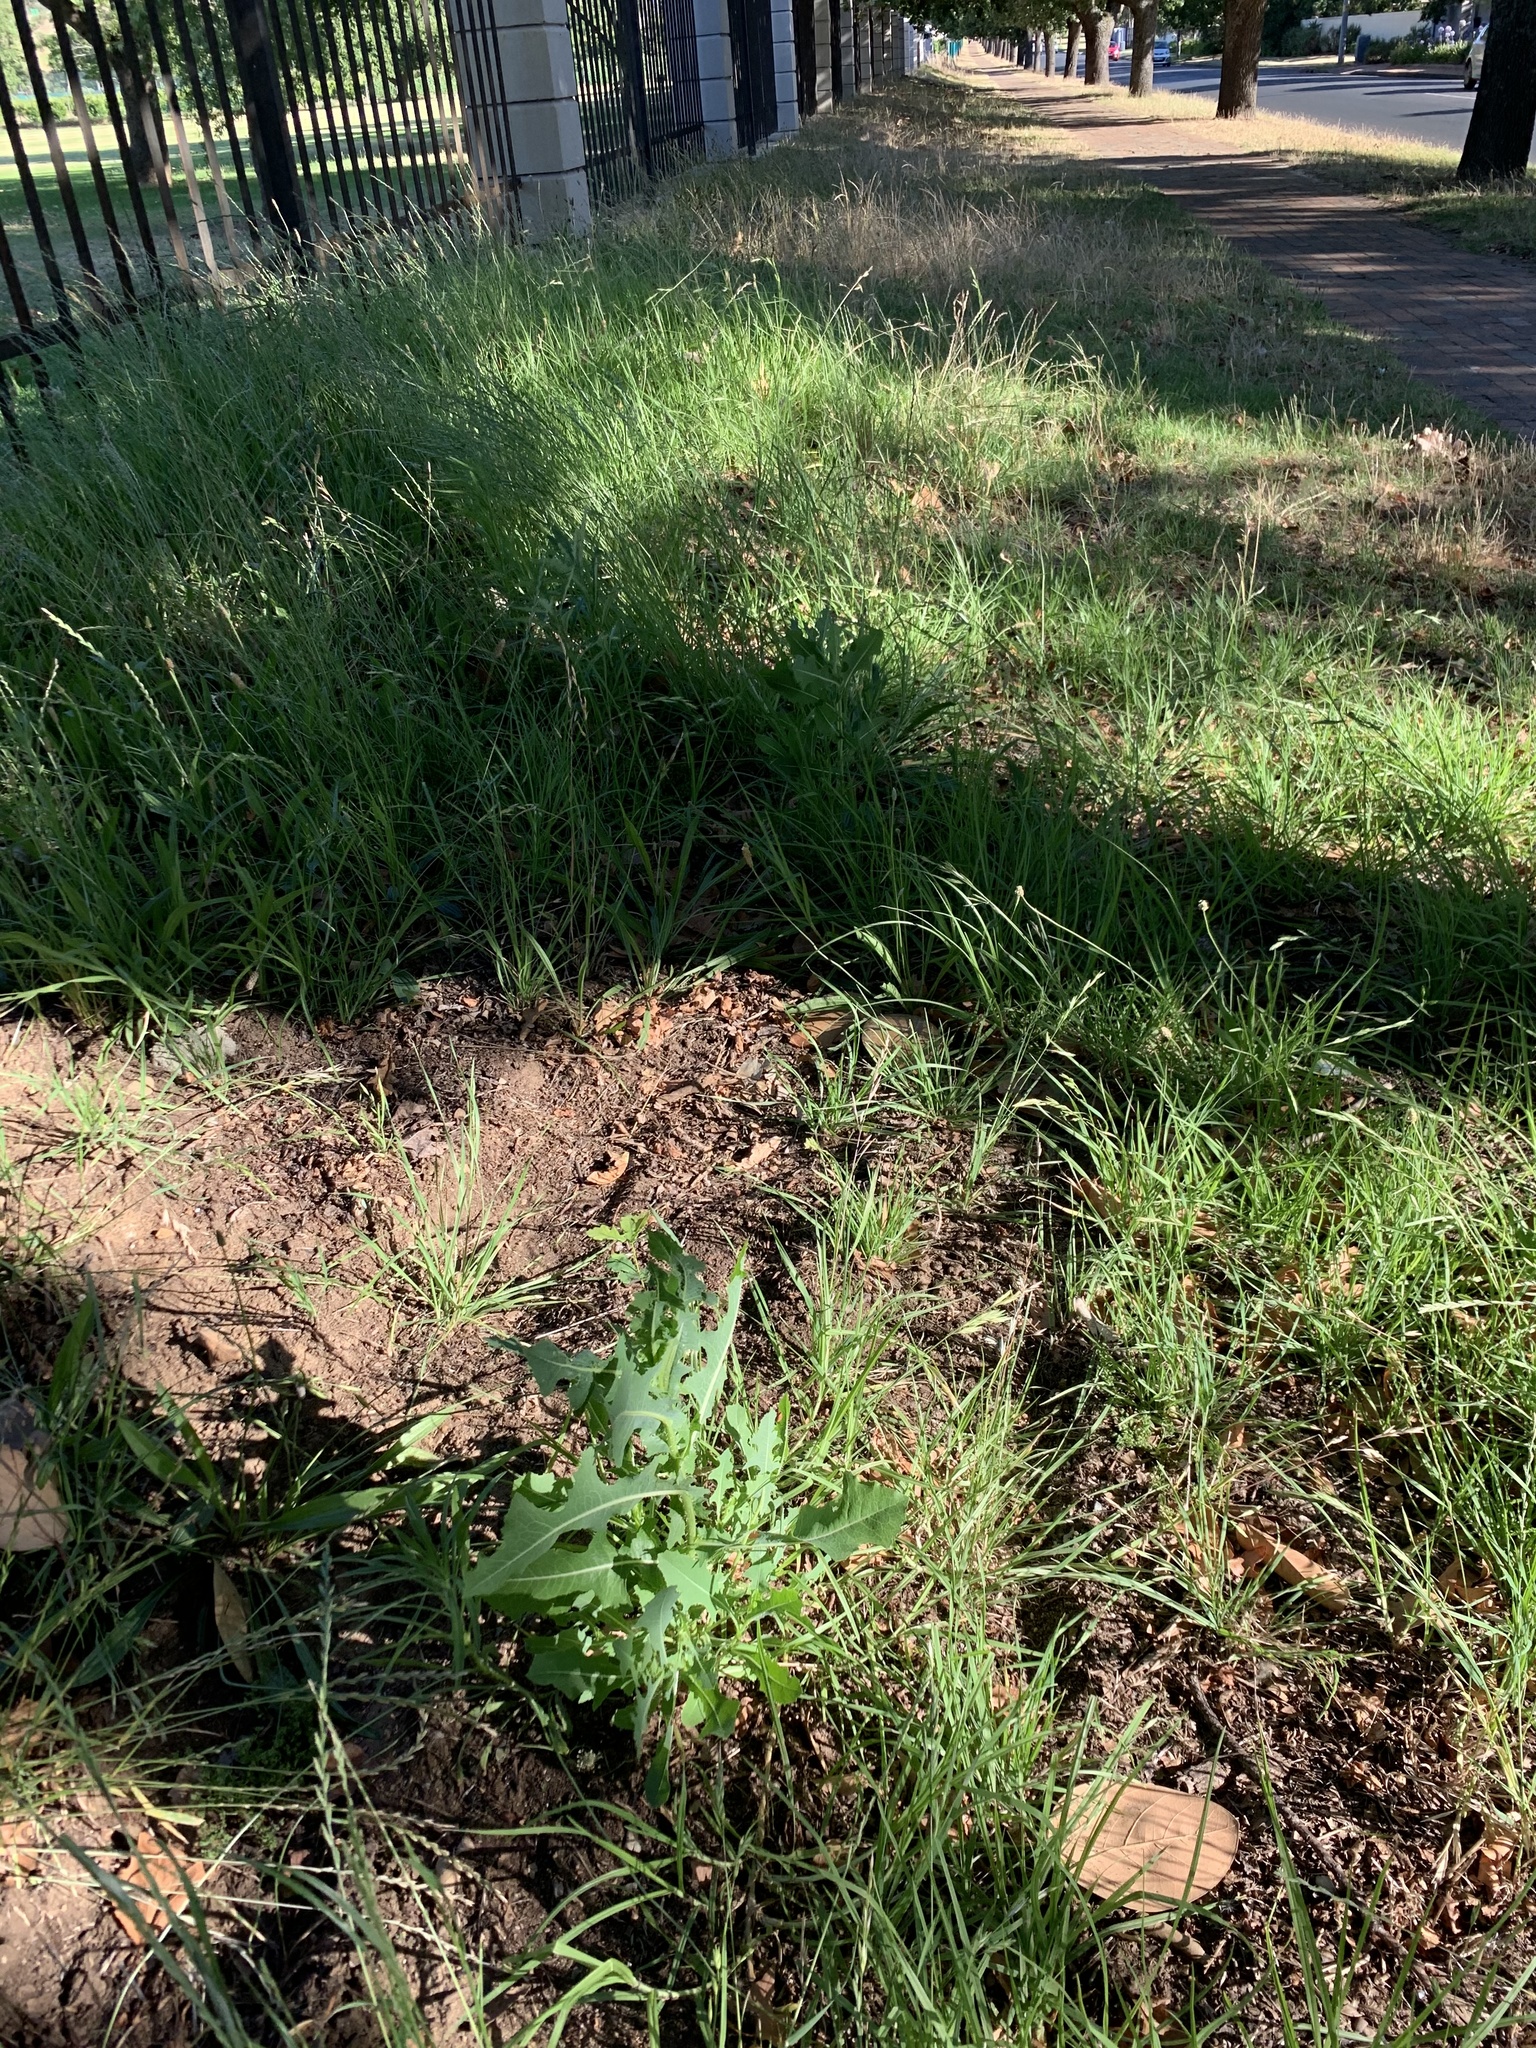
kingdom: Plantae
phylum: Tracheophyta
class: Magnoliopsida
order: Asterales
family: Asteraceae
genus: Lactuca
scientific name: Lactuca serriola
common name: Prickly lettuce
